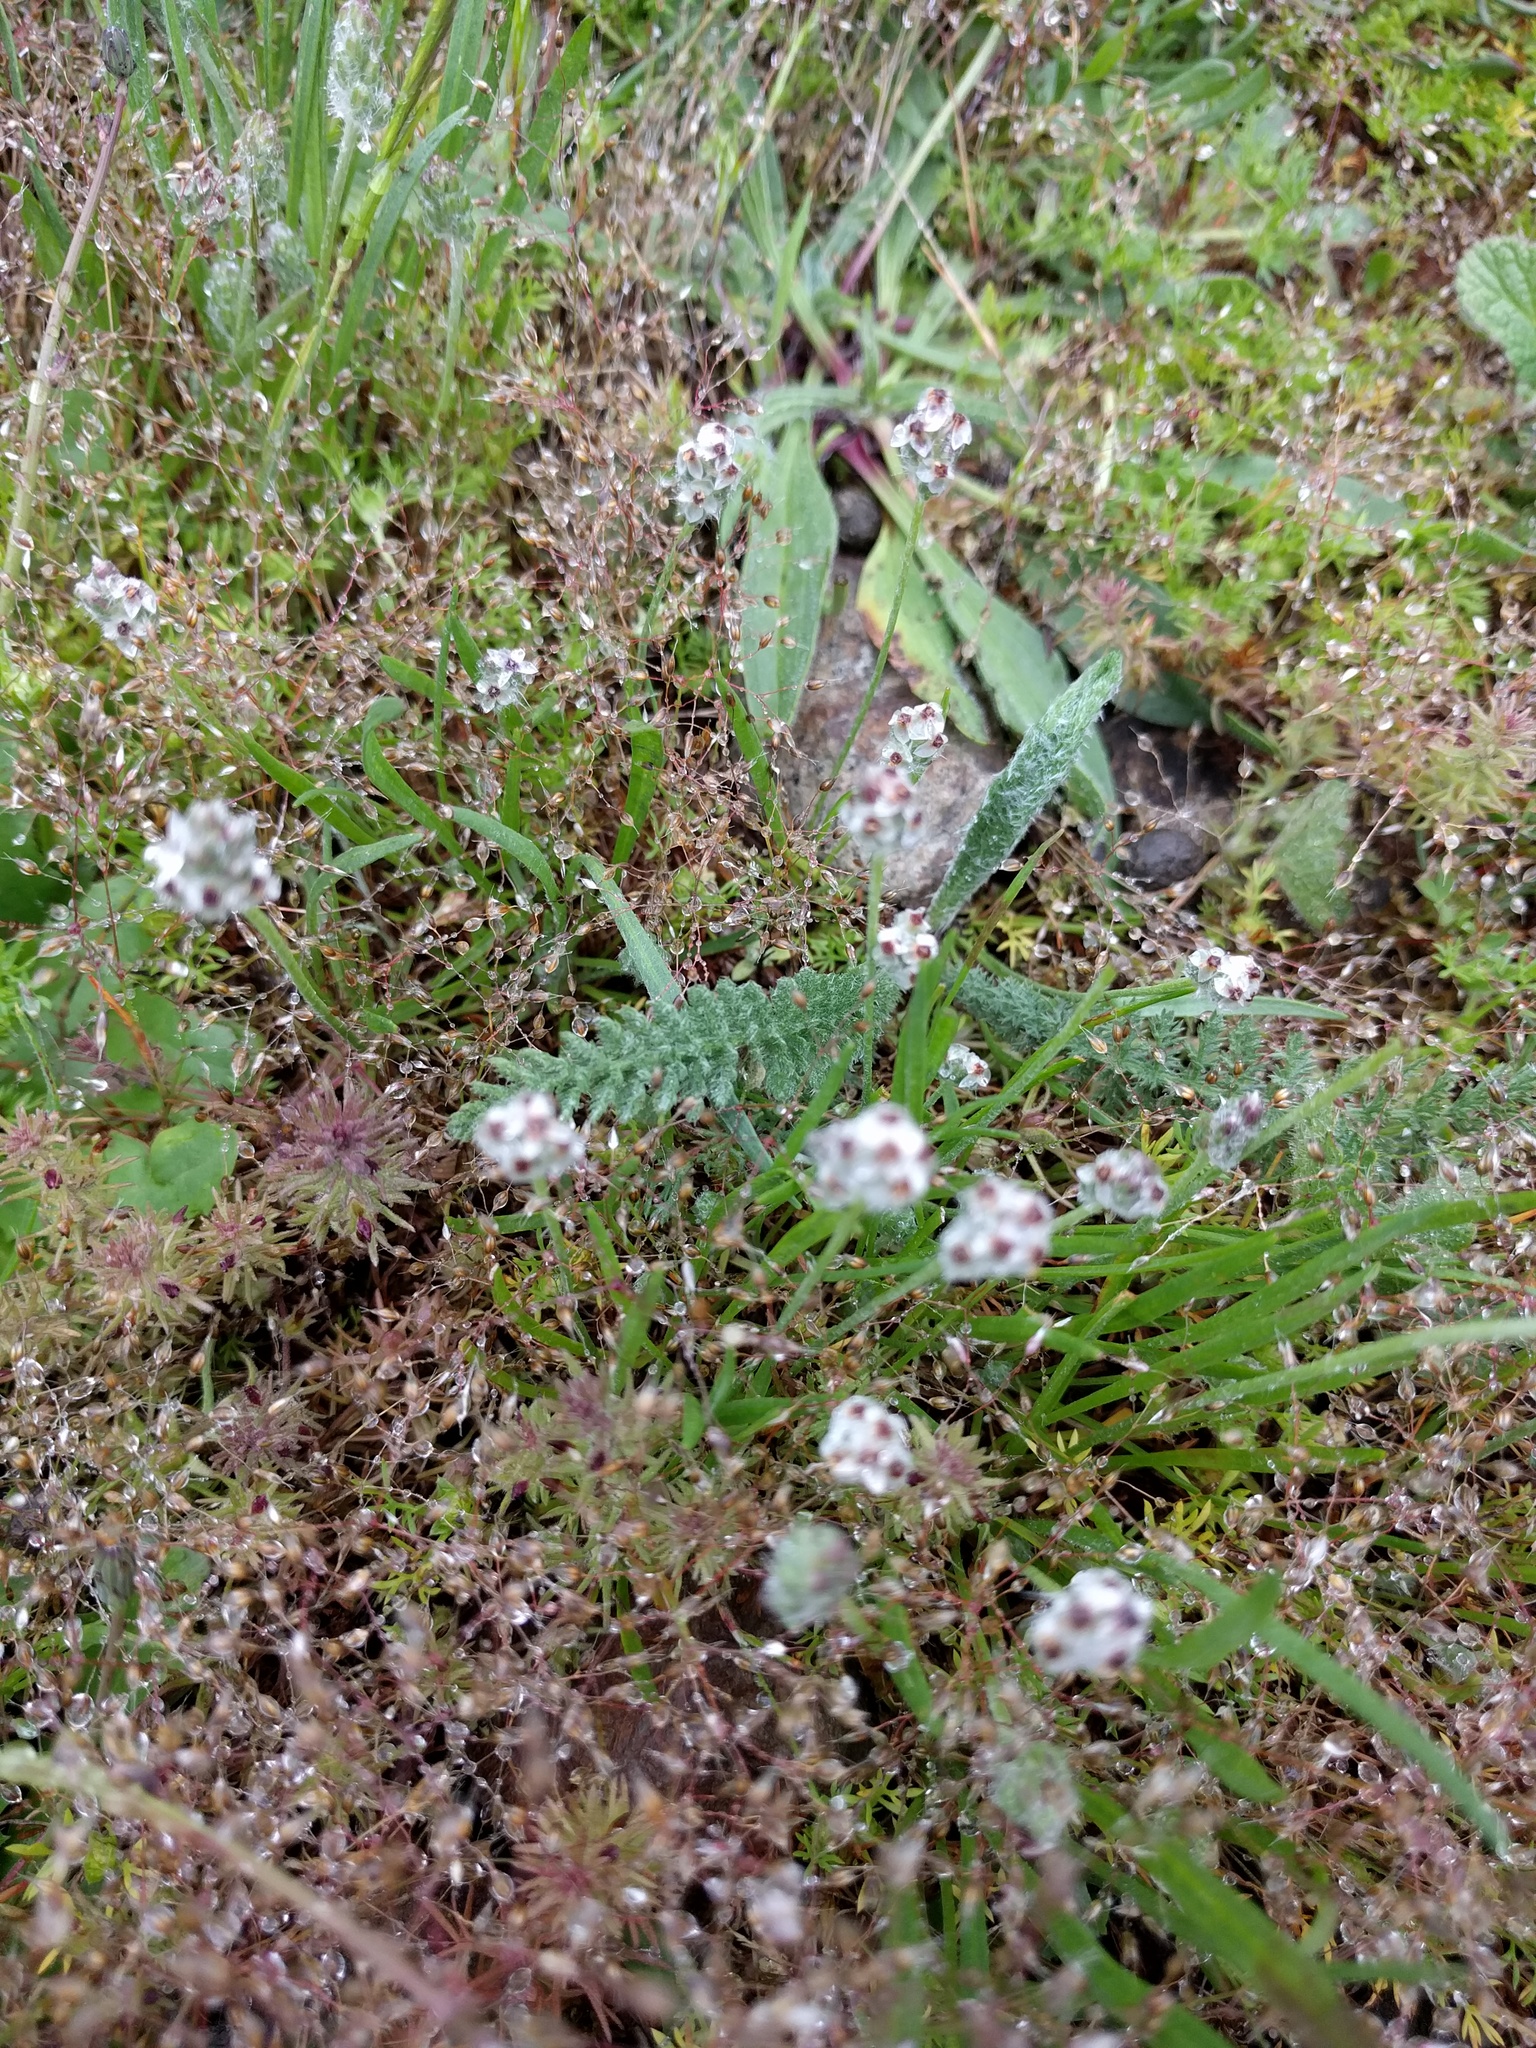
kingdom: Plantae
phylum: Tracheophyta
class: Magnoliopsida
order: Lamiales
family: Plantaginaceae
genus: Plantago
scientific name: Plantago erecta
